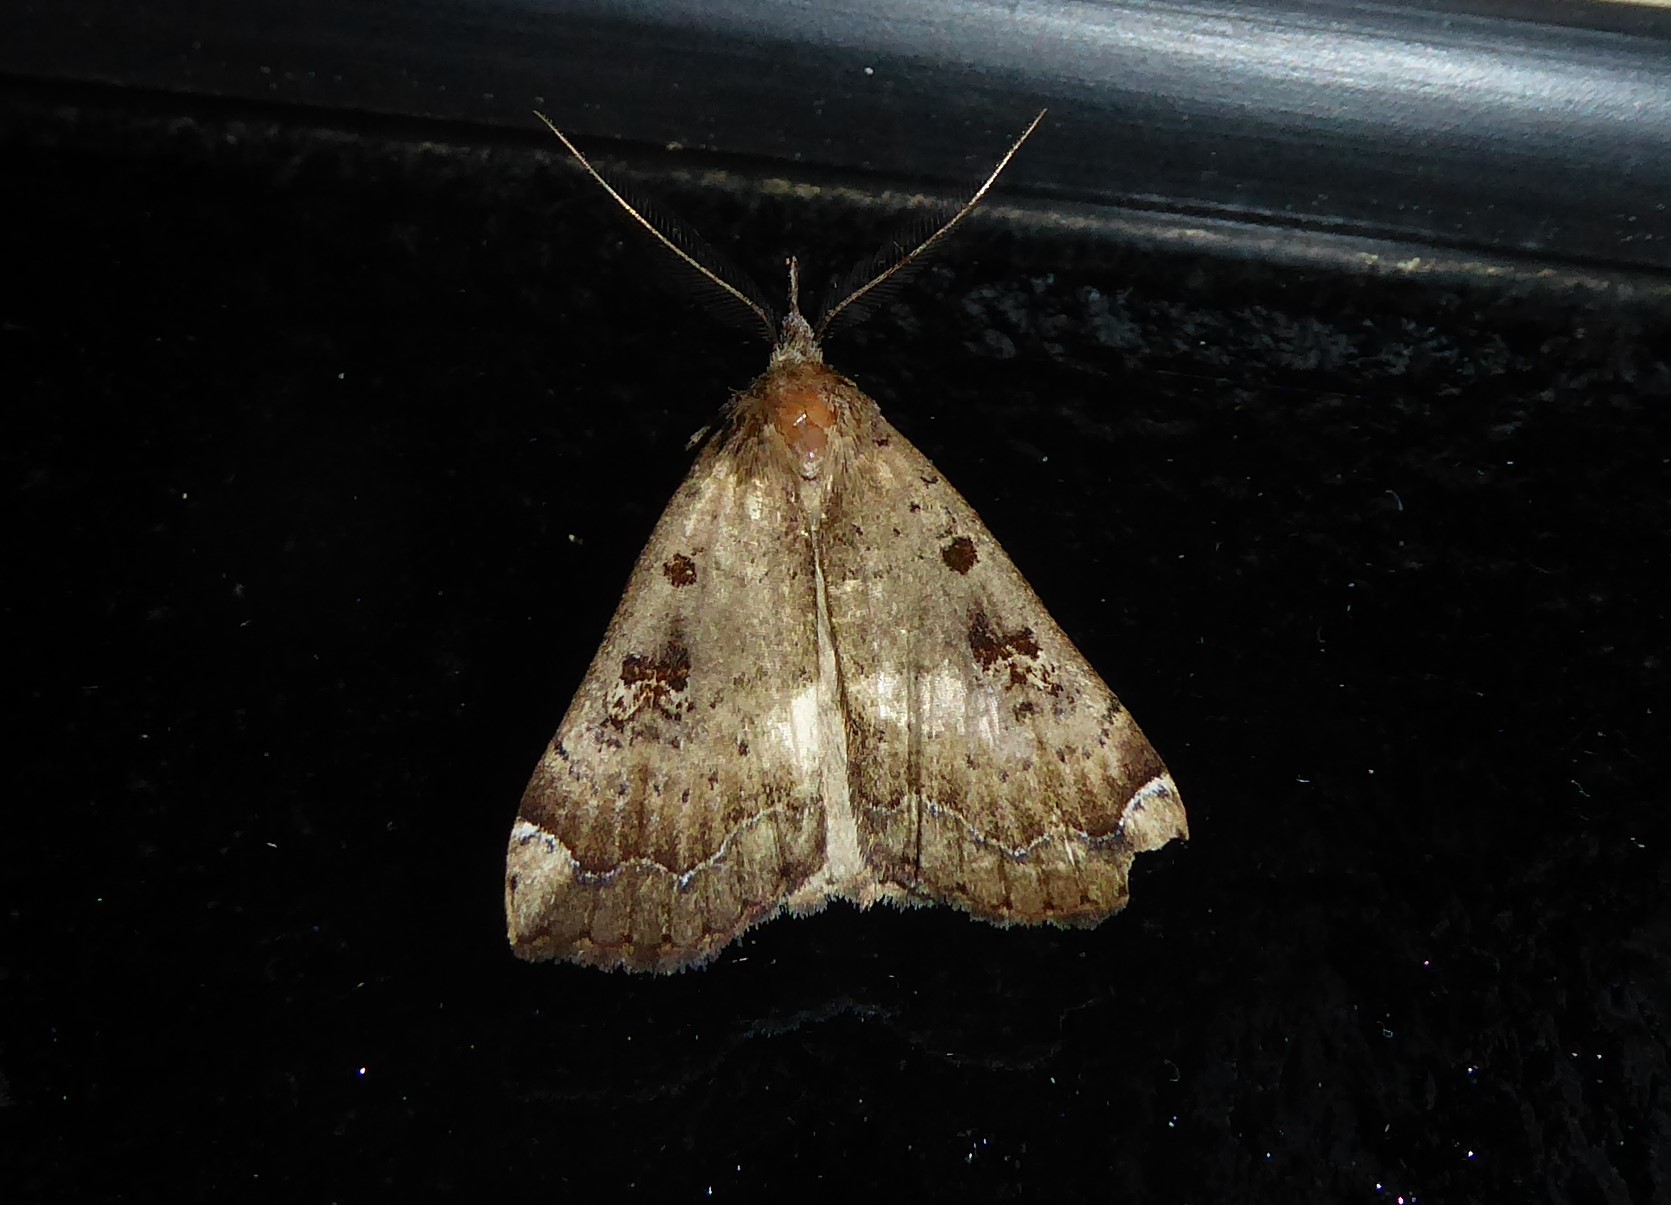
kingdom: Animalia
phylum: Arthropoda
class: Insecta
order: Lepidoptera
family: Erebidae
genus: Rhapsa
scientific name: Rhapsa scotosialis
